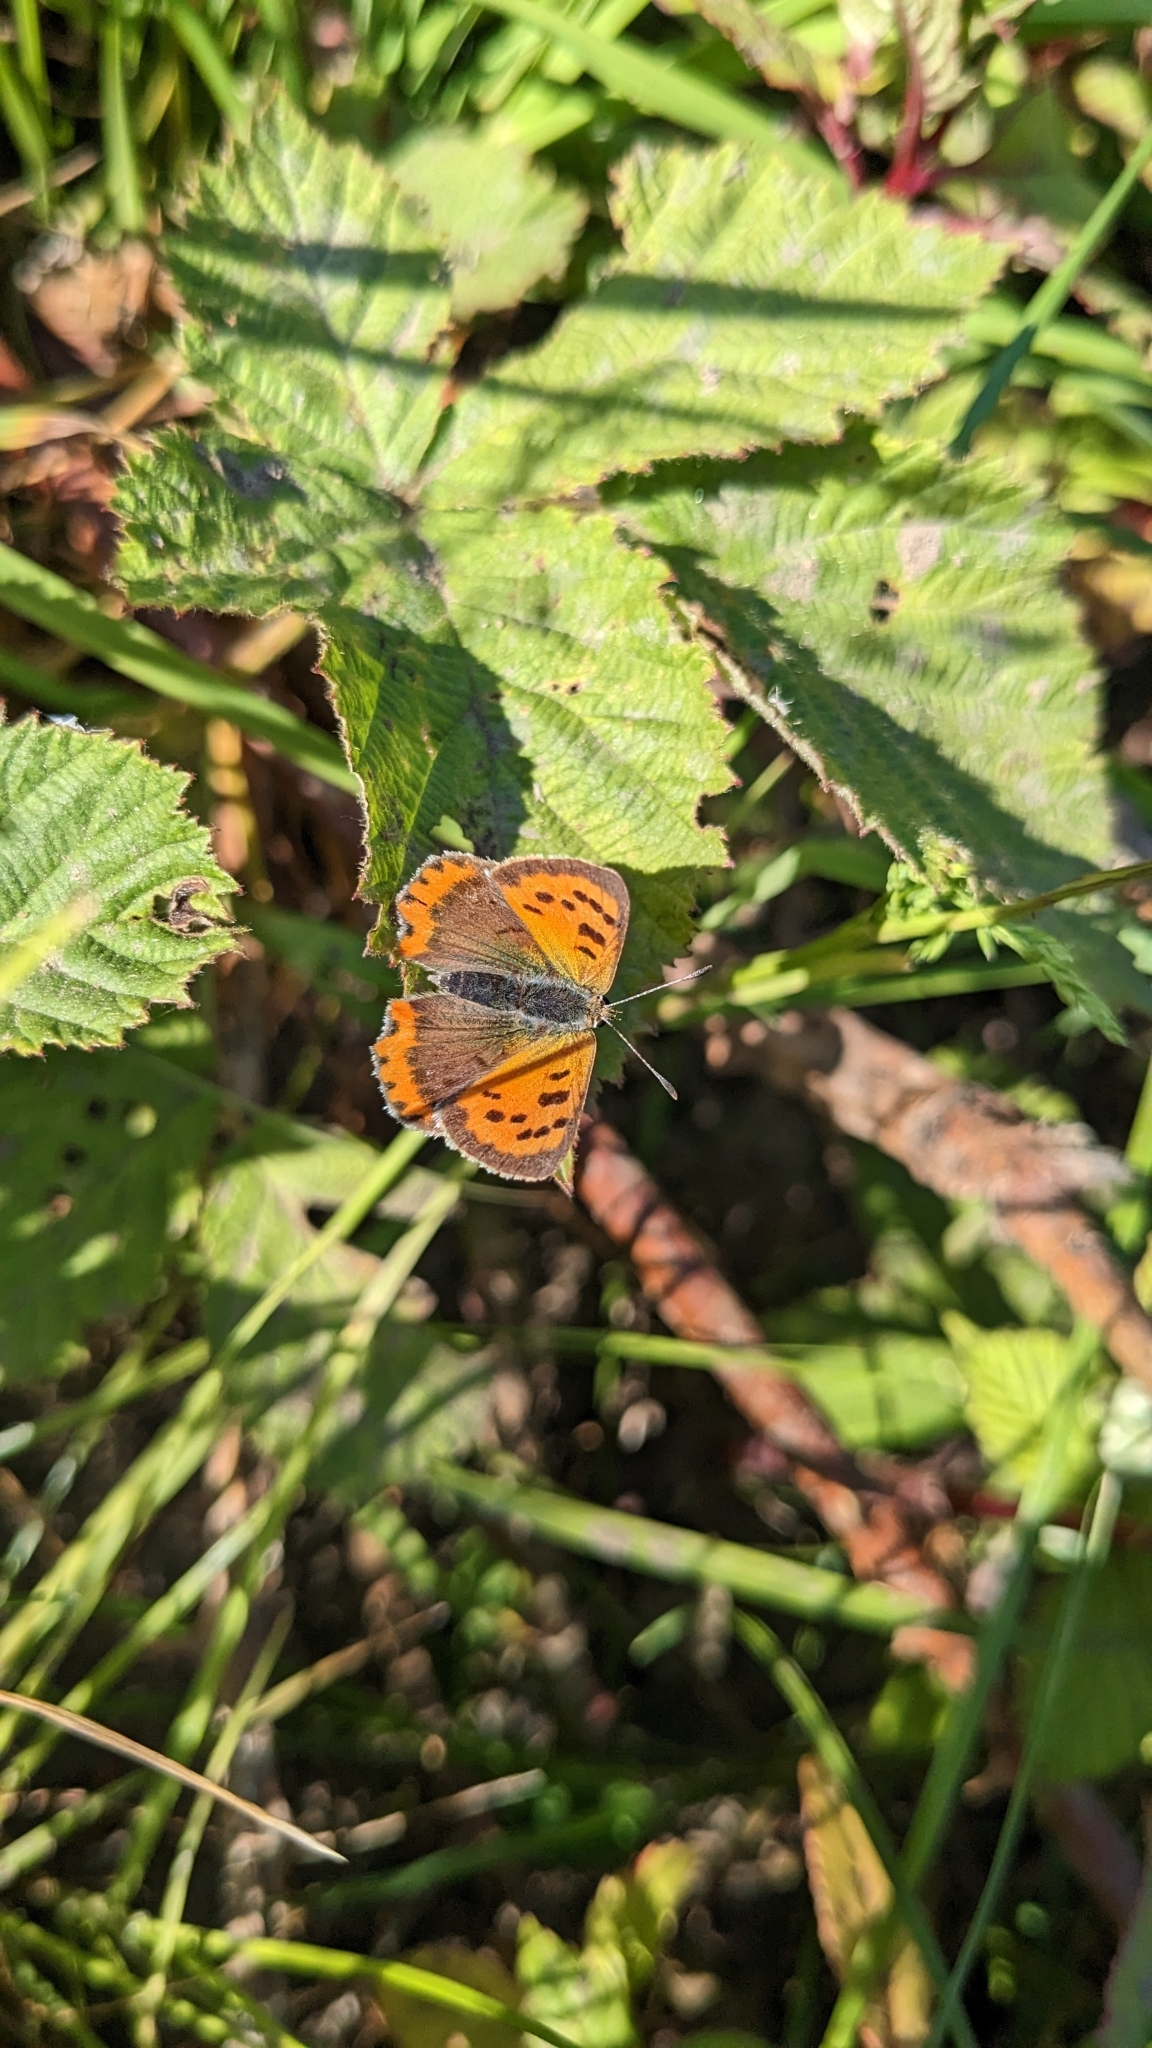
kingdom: Animalia
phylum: Arthropoda
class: Insecta
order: Lepidoptera
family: Lycaenidae
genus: Lycaena
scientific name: Lycaena phlaeas
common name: Small copper
